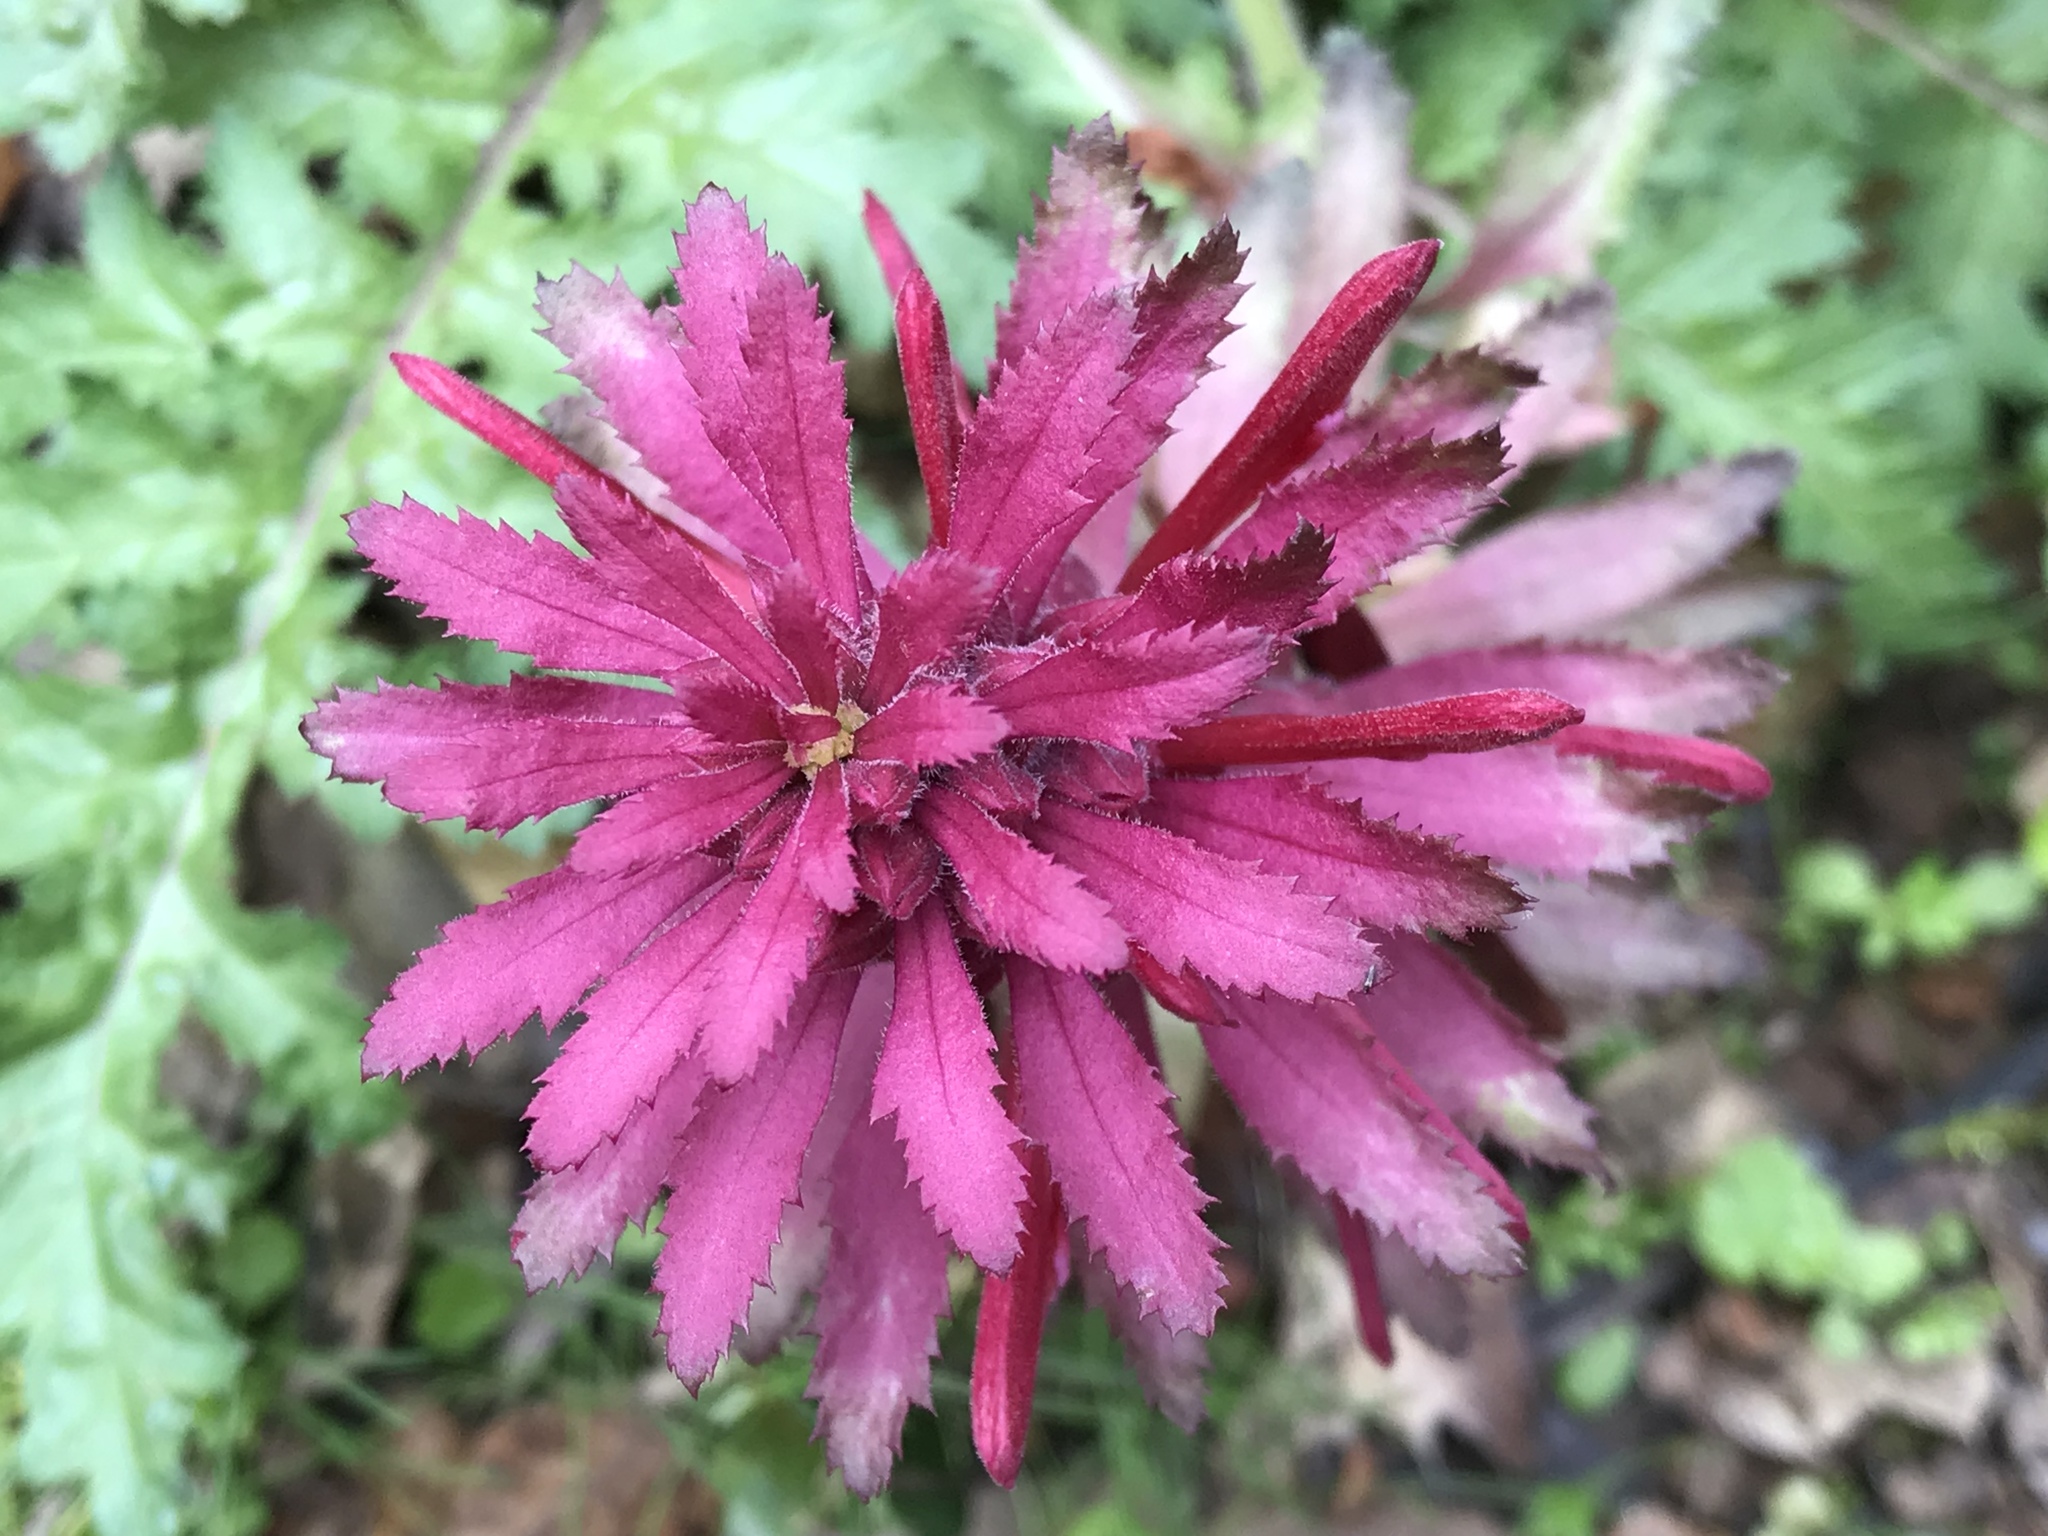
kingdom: Plantae
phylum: Tracheophyta
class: Magnoliopsida
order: Lamiales
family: Orobanchaceae
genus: Pedicularis
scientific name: Pedicularis densiflora
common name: Indian warrior
